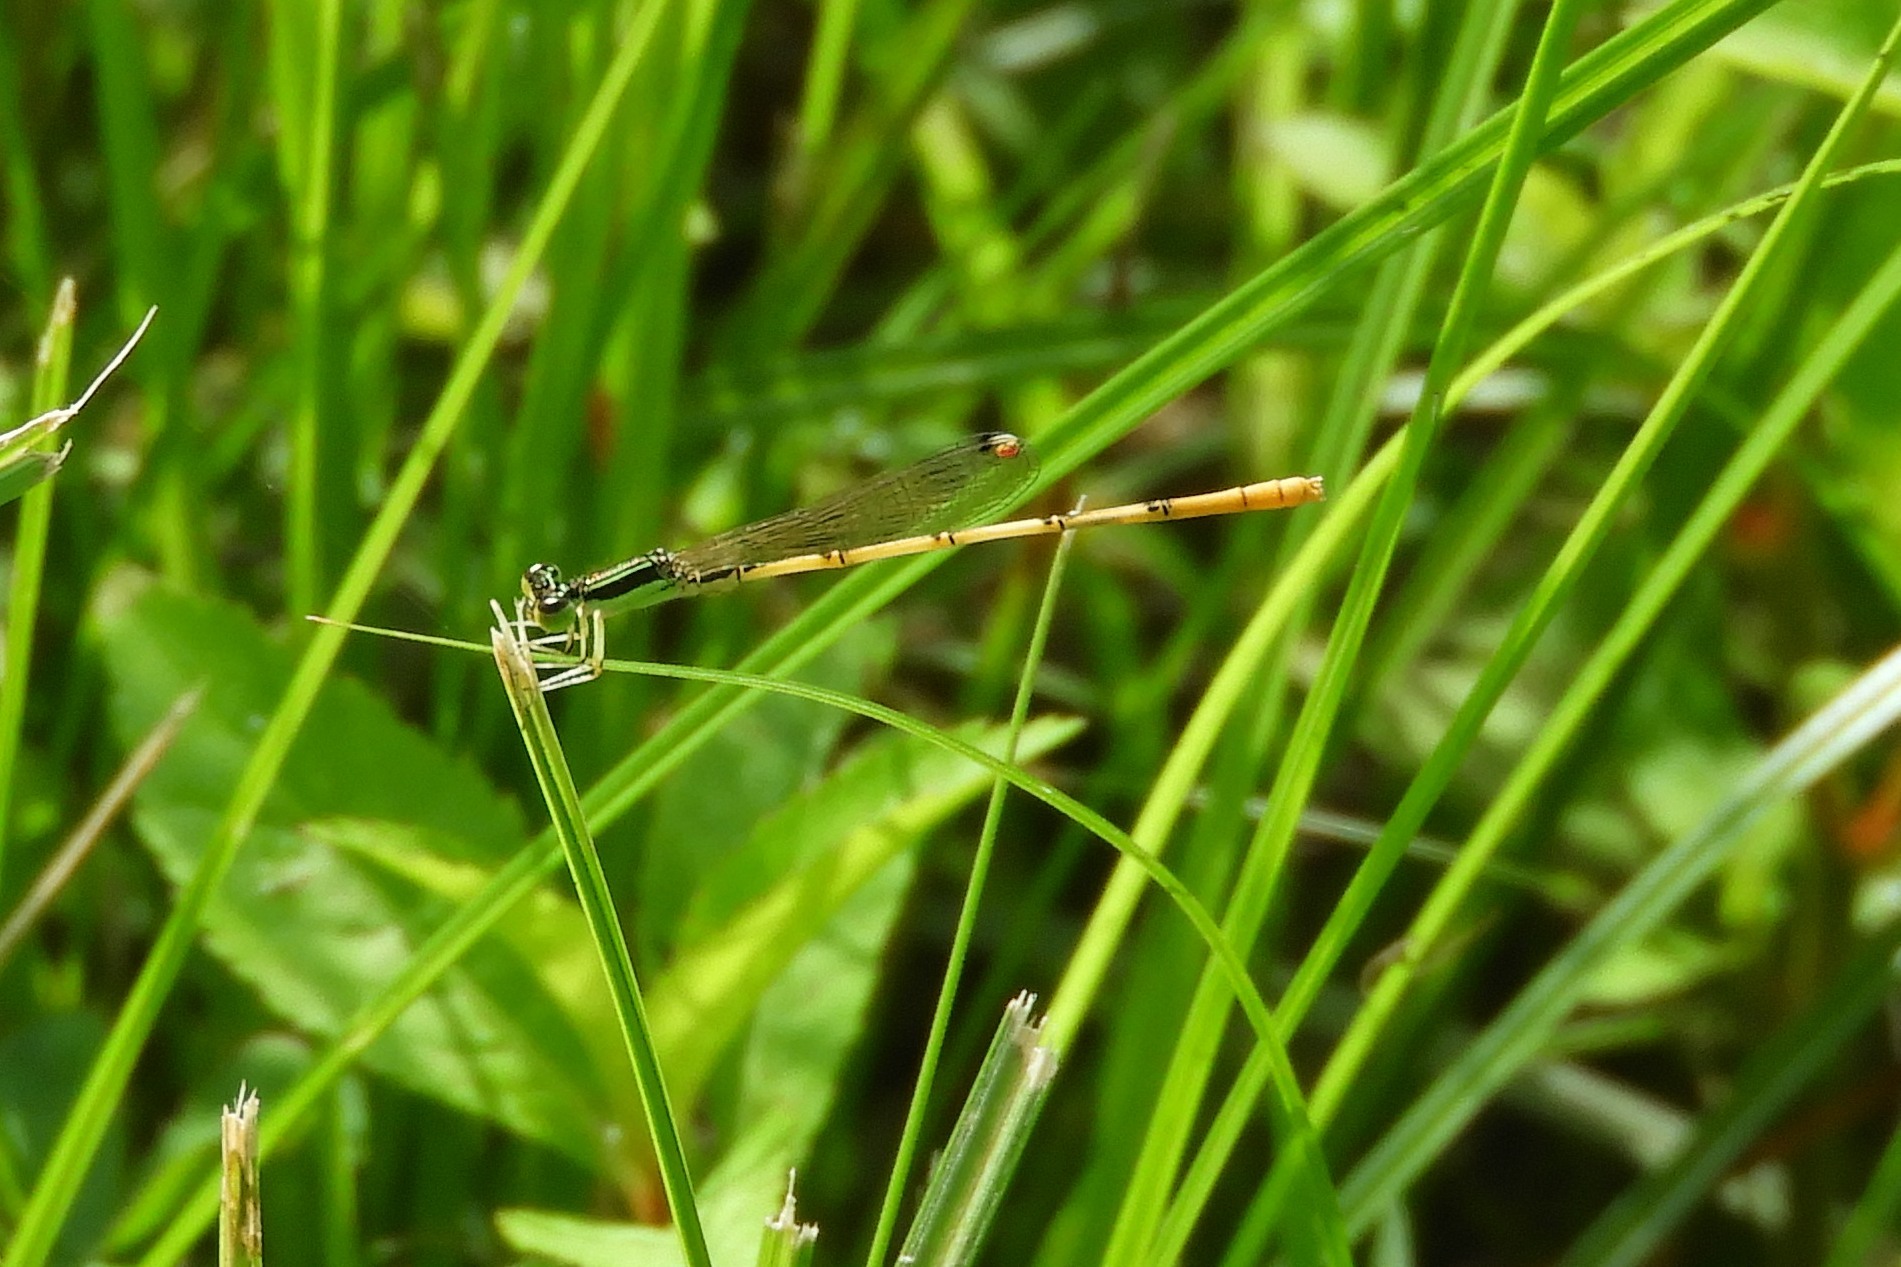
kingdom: Animalia
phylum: Arthropoda
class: Insecta
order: Odonata
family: Coenagrionidae
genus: Ischnura
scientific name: Ischnura hastata
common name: Citrine forktail
